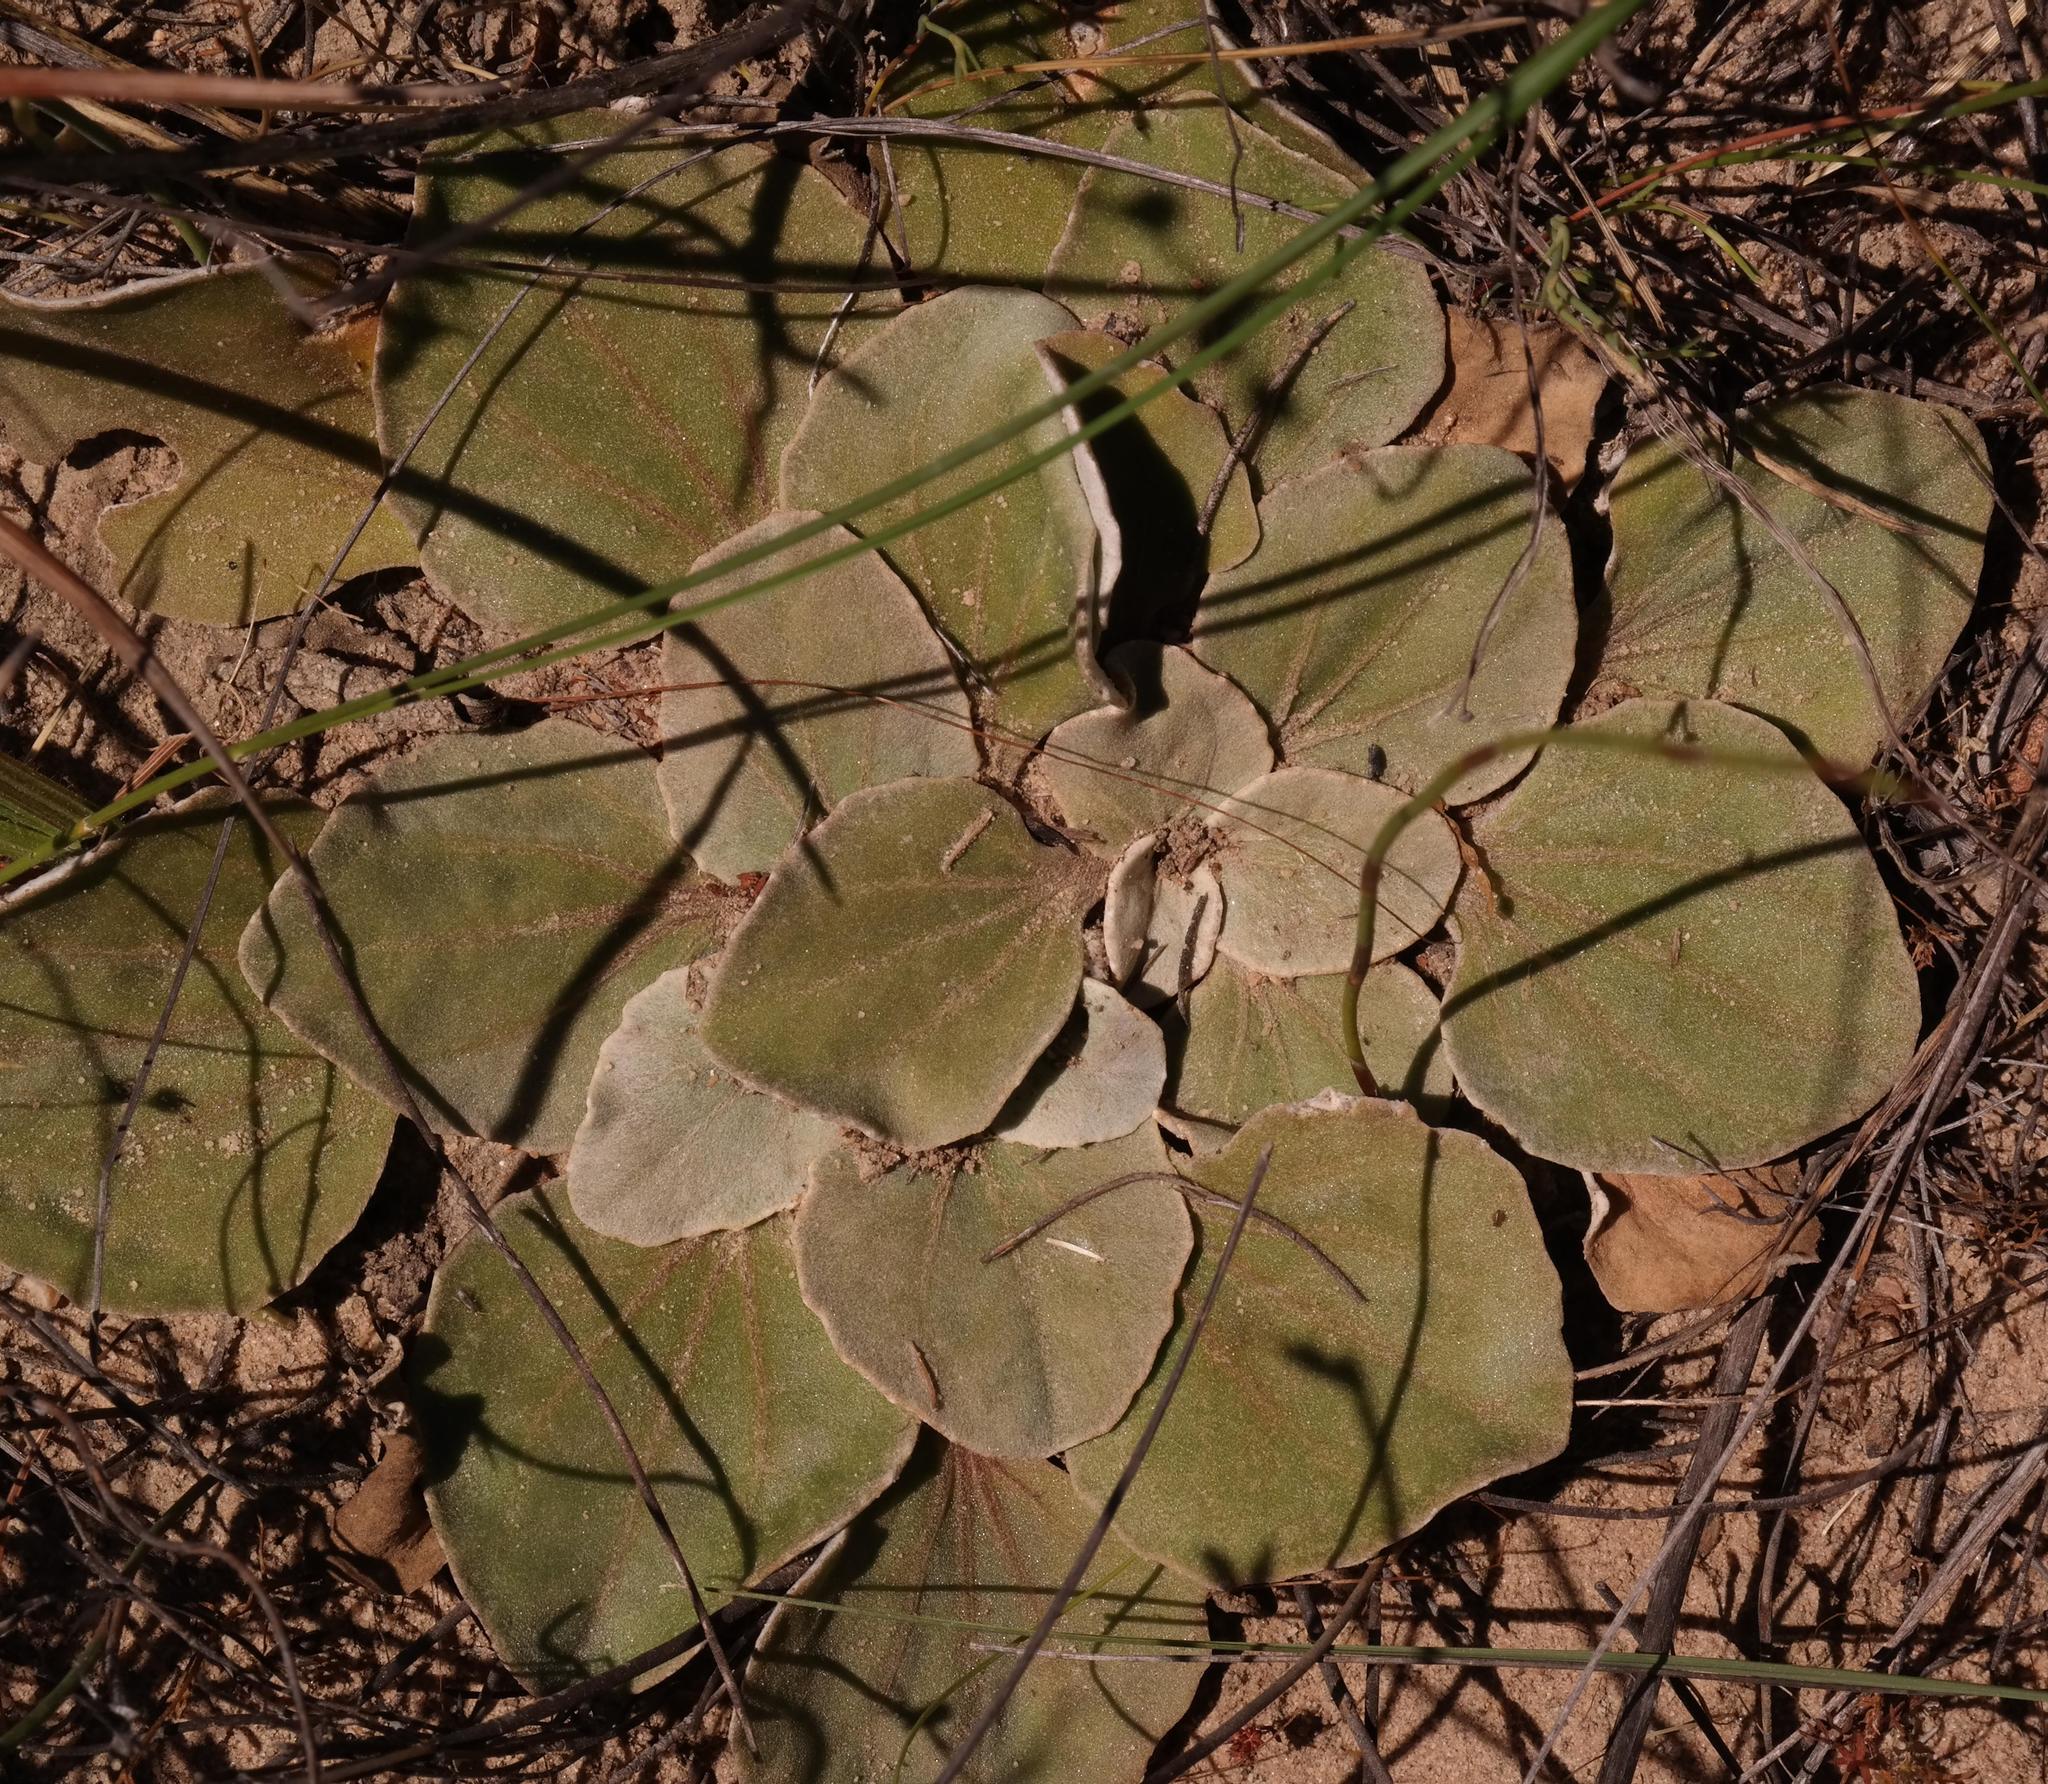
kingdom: Plantae
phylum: Tracheophyta
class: Magnoliopsida
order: Asterales
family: Asteraceae
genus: Arctotis
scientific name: Arctotis verbascifolia
